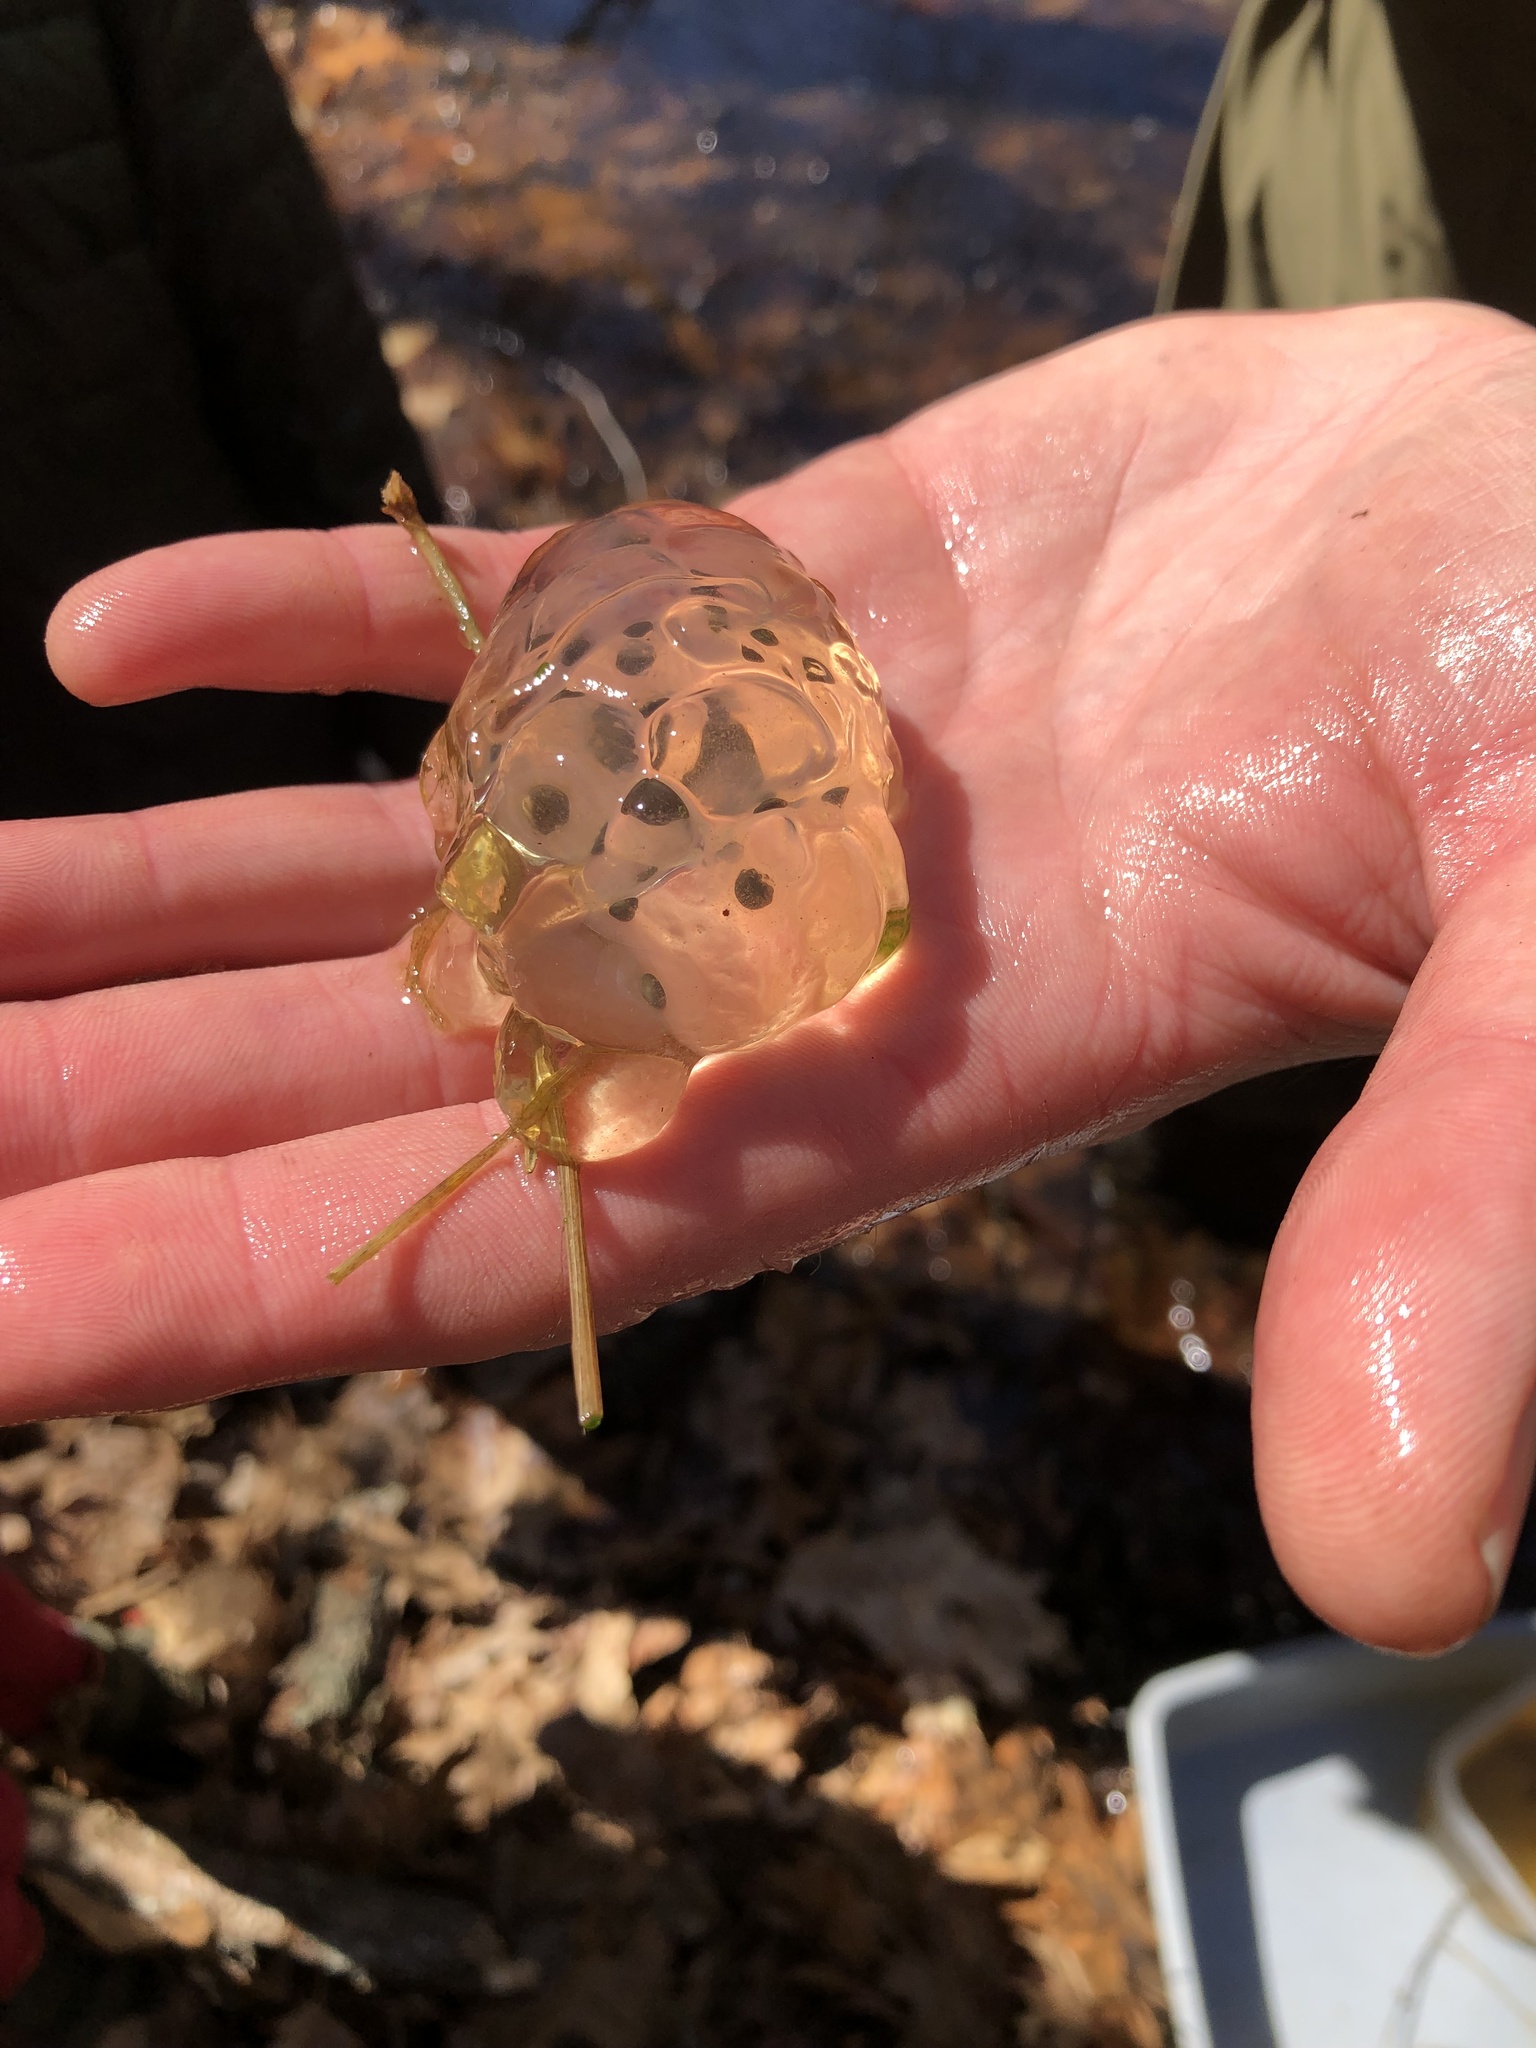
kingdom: Animalia
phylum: Chordata
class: Amphibia
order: Caudata
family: Ambystomatidae
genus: Ambystoma
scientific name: Ambystoma maculatum
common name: Spotted salamander
